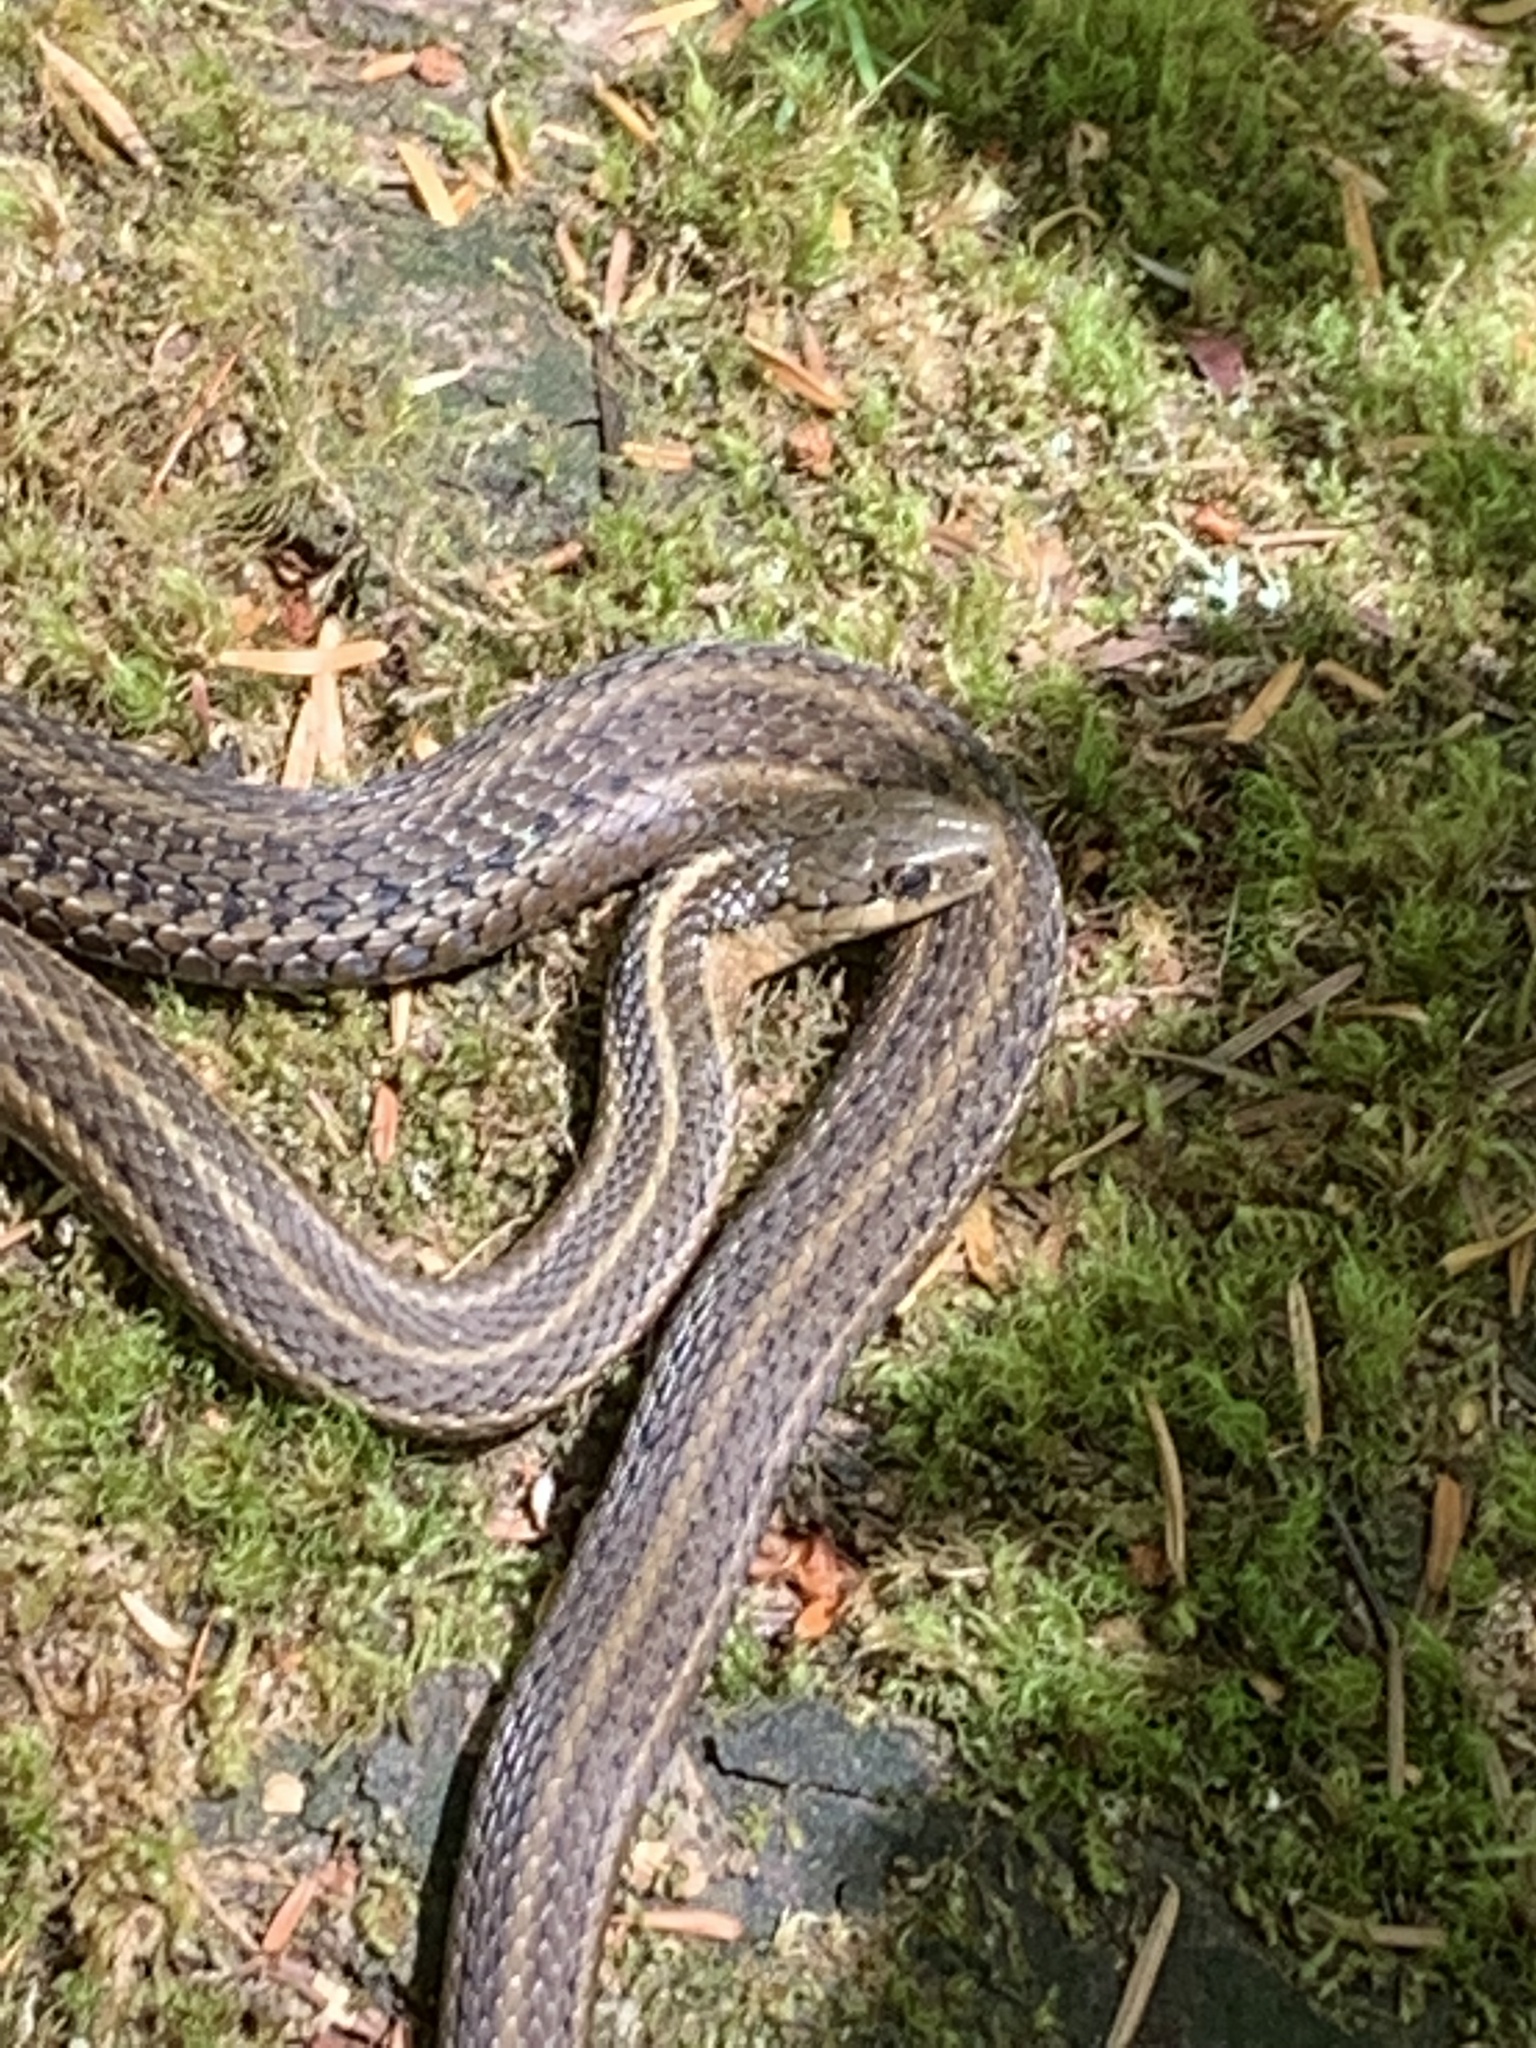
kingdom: Animalia
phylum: Chordata
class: Squamata
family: Colubridae
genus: Thamnophis
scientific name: Thamnophis ordinoides
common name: Northwestern garter snake
